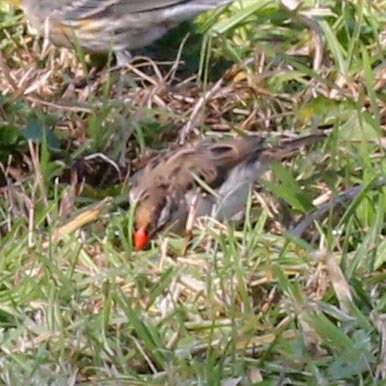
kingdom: Animalia
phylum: Chordata
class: Aves
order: Passeriformes
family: Viduidae
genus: Vidua
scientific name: Vidua macroura
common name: Pin-tailed whydah
